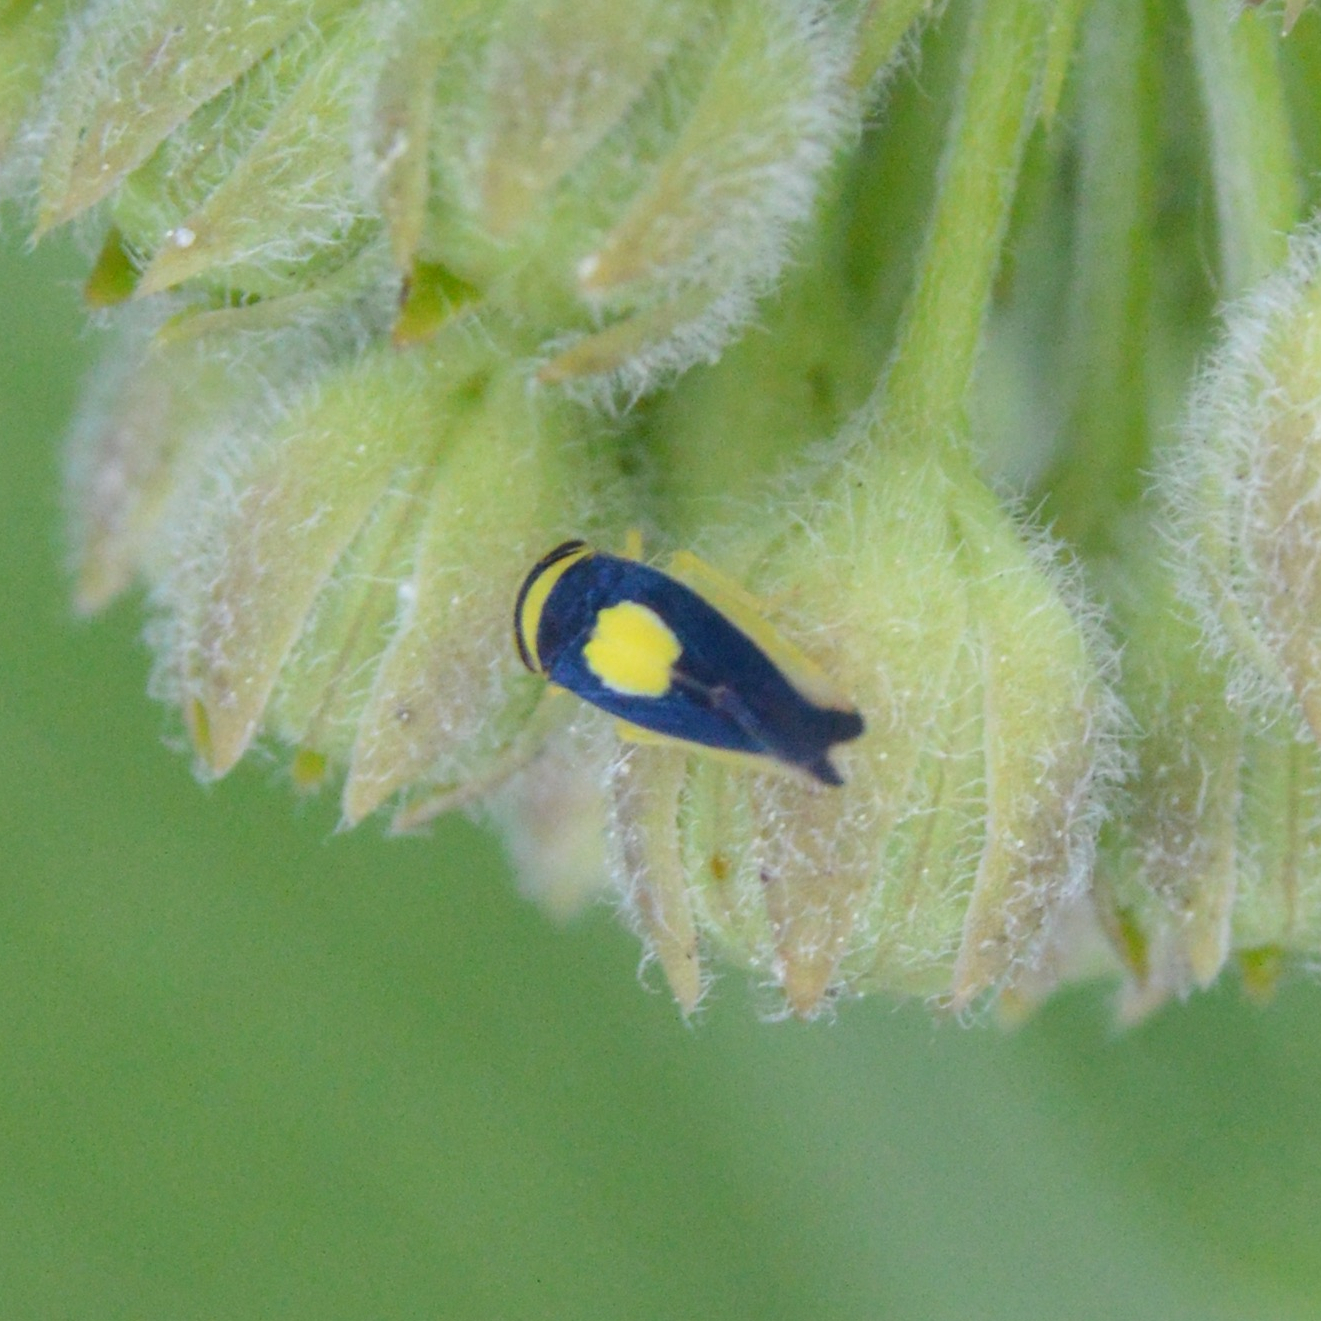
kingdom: Animalia
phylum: Arthropoda
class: Insecta
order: Hemiptera
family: Cicadellidae
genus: Colladonus
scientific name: Colladonus clitellarius
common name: The saddleback leafhopper
